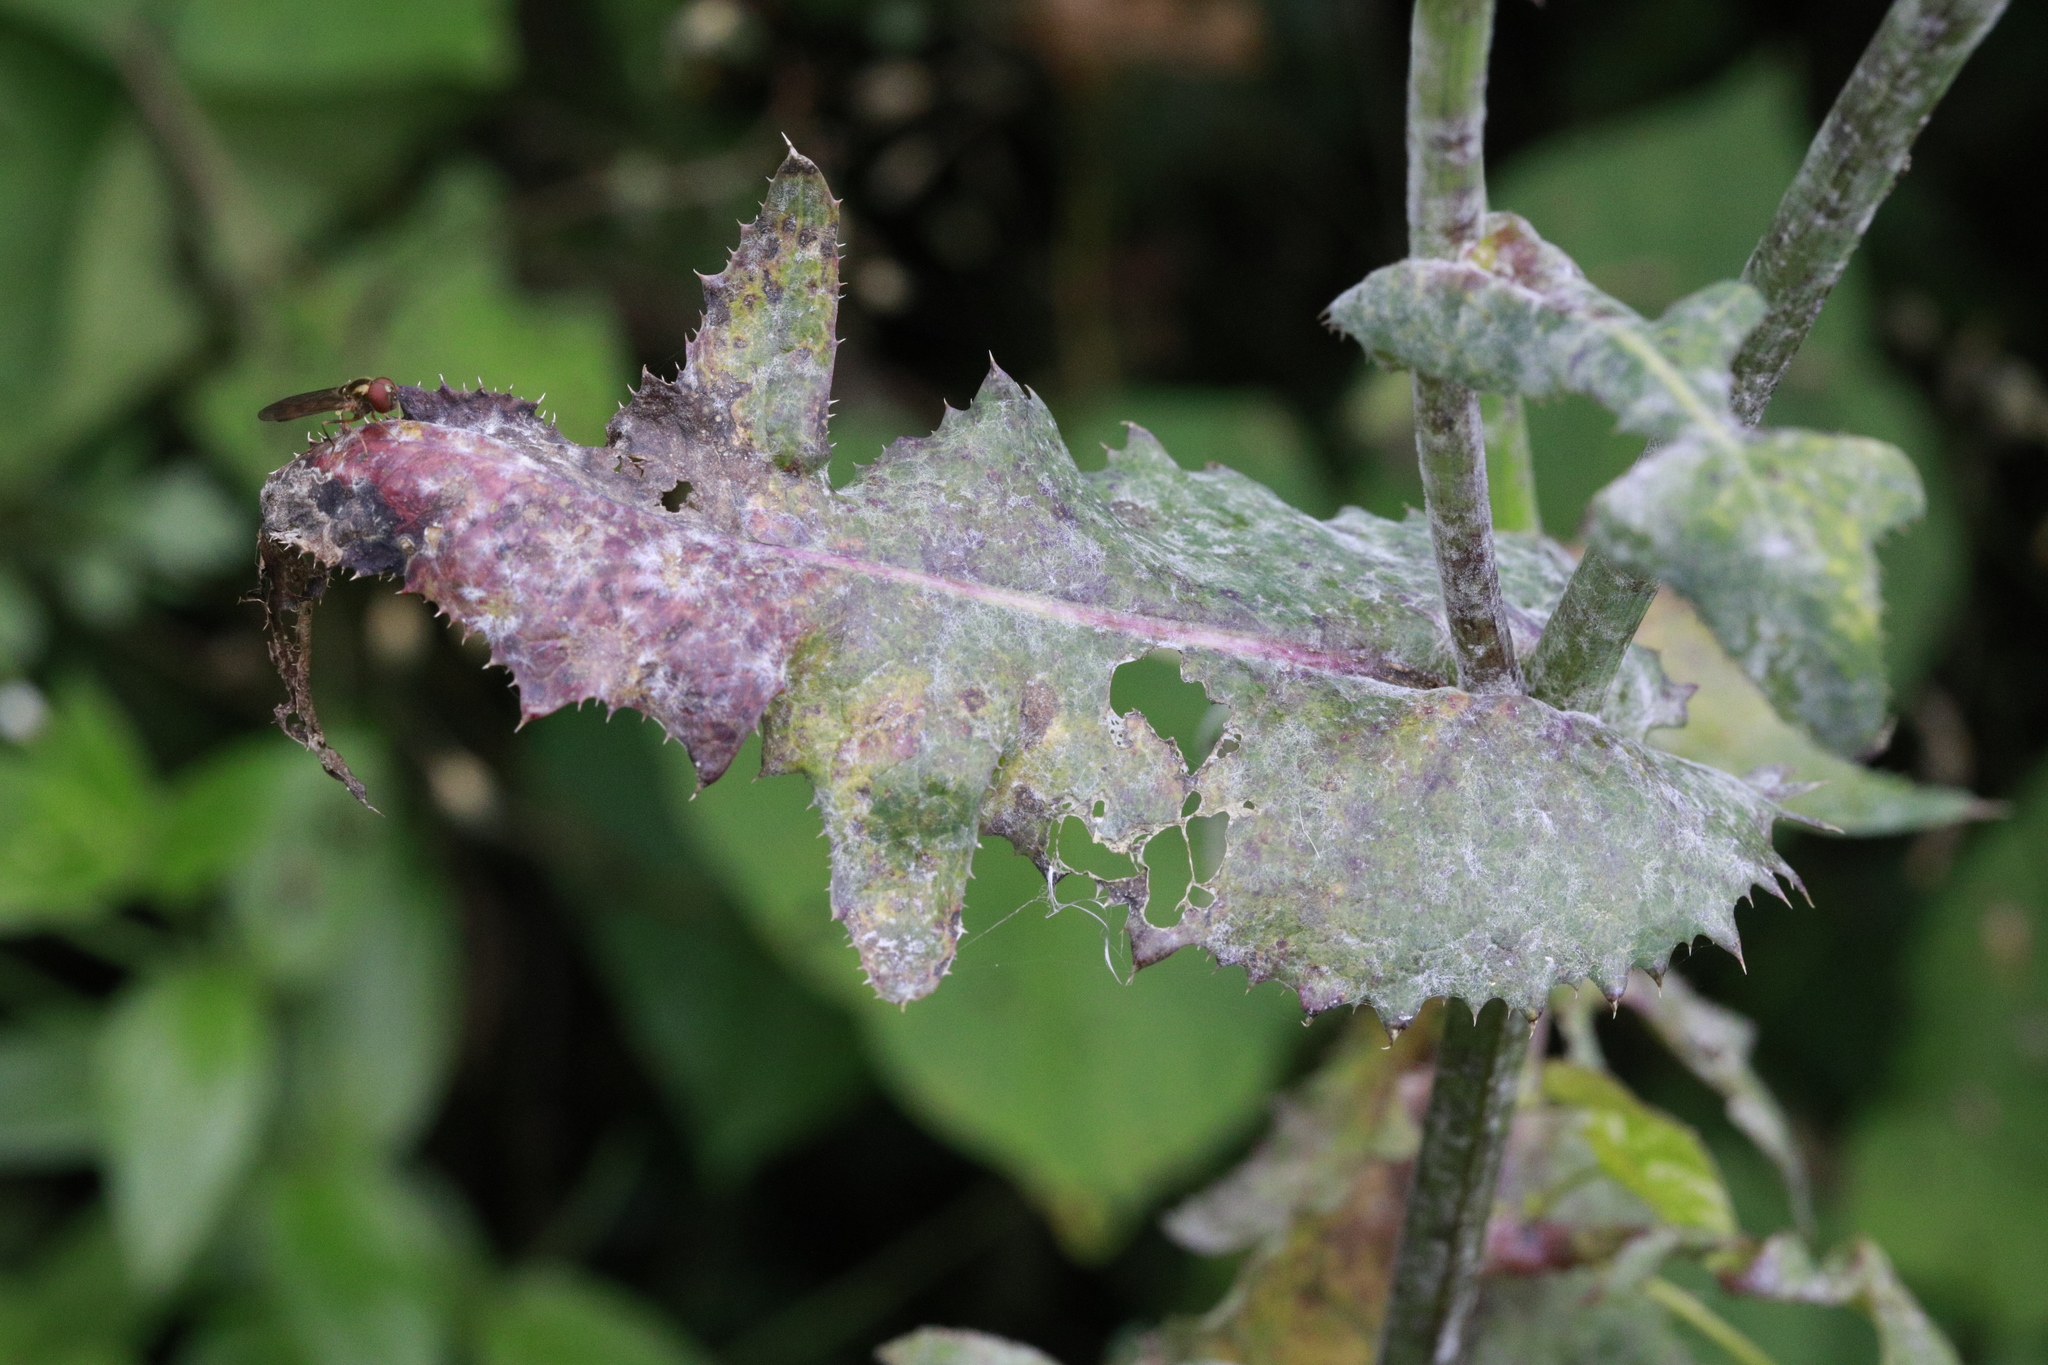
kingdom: Plantae
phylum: Tracheophyta
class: Magnoliopsida
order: Asterales
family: Asteraceae
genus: Sonchus
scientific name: Sonchus oleraceus
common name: Common sowthistle
